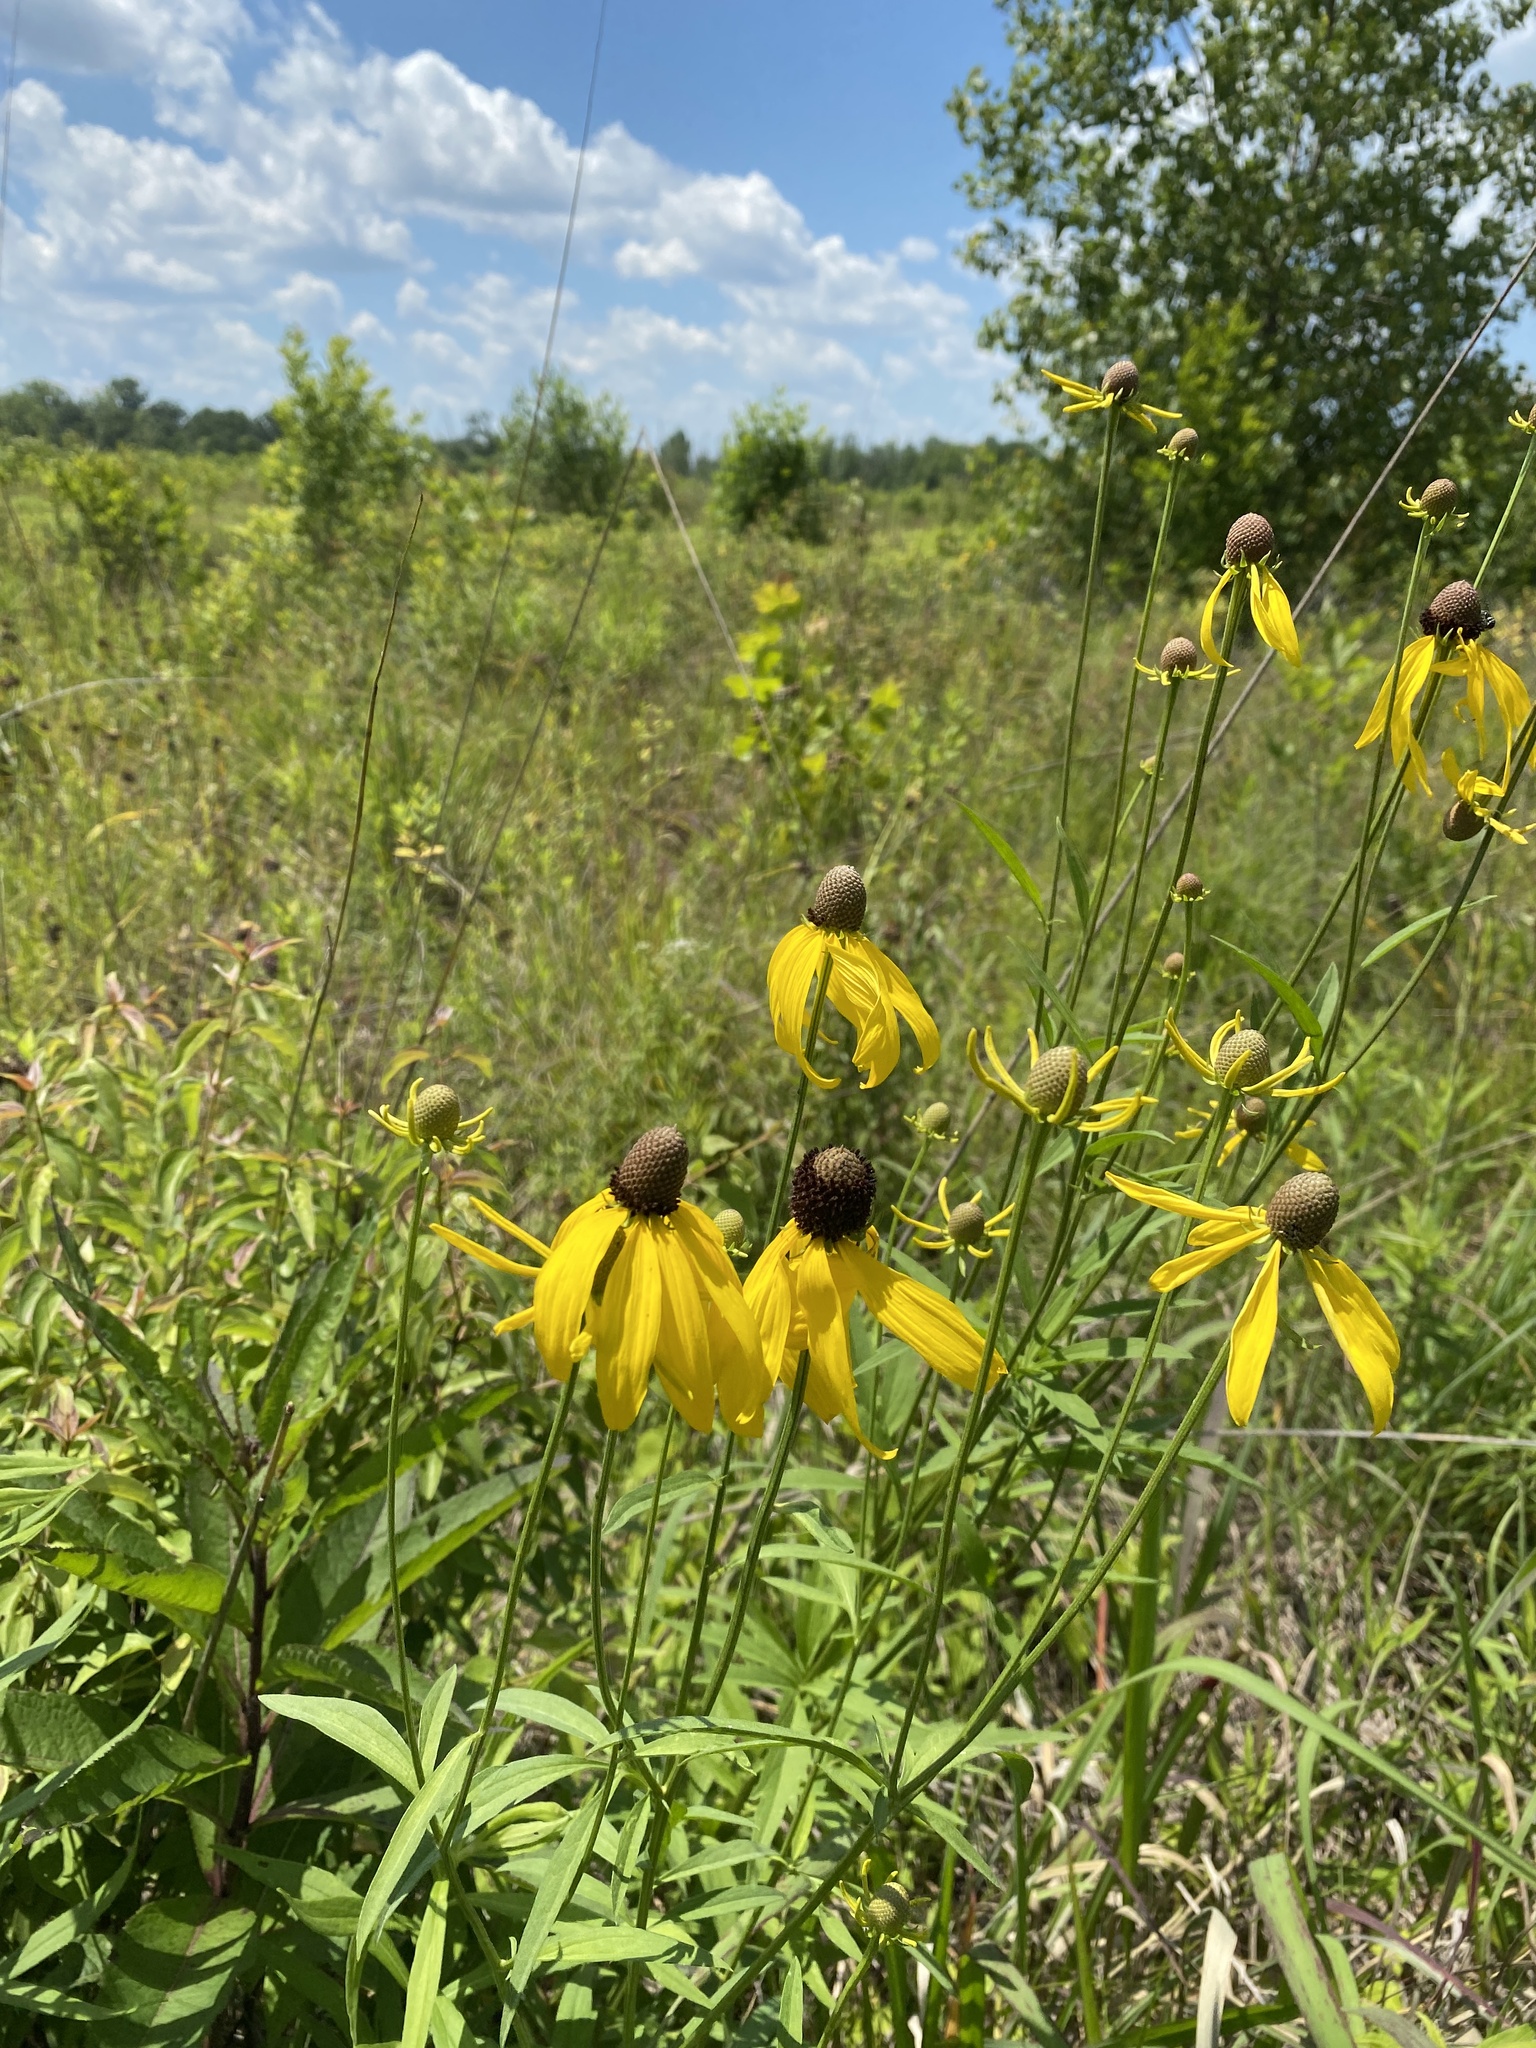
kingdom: Plantae
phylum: Tracheophyta
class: Magnoliopsida
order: Asterales
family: Asteraceae
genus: Ratibida
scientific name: Ratibida pinnata
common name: Drooping prairie-coneflower
